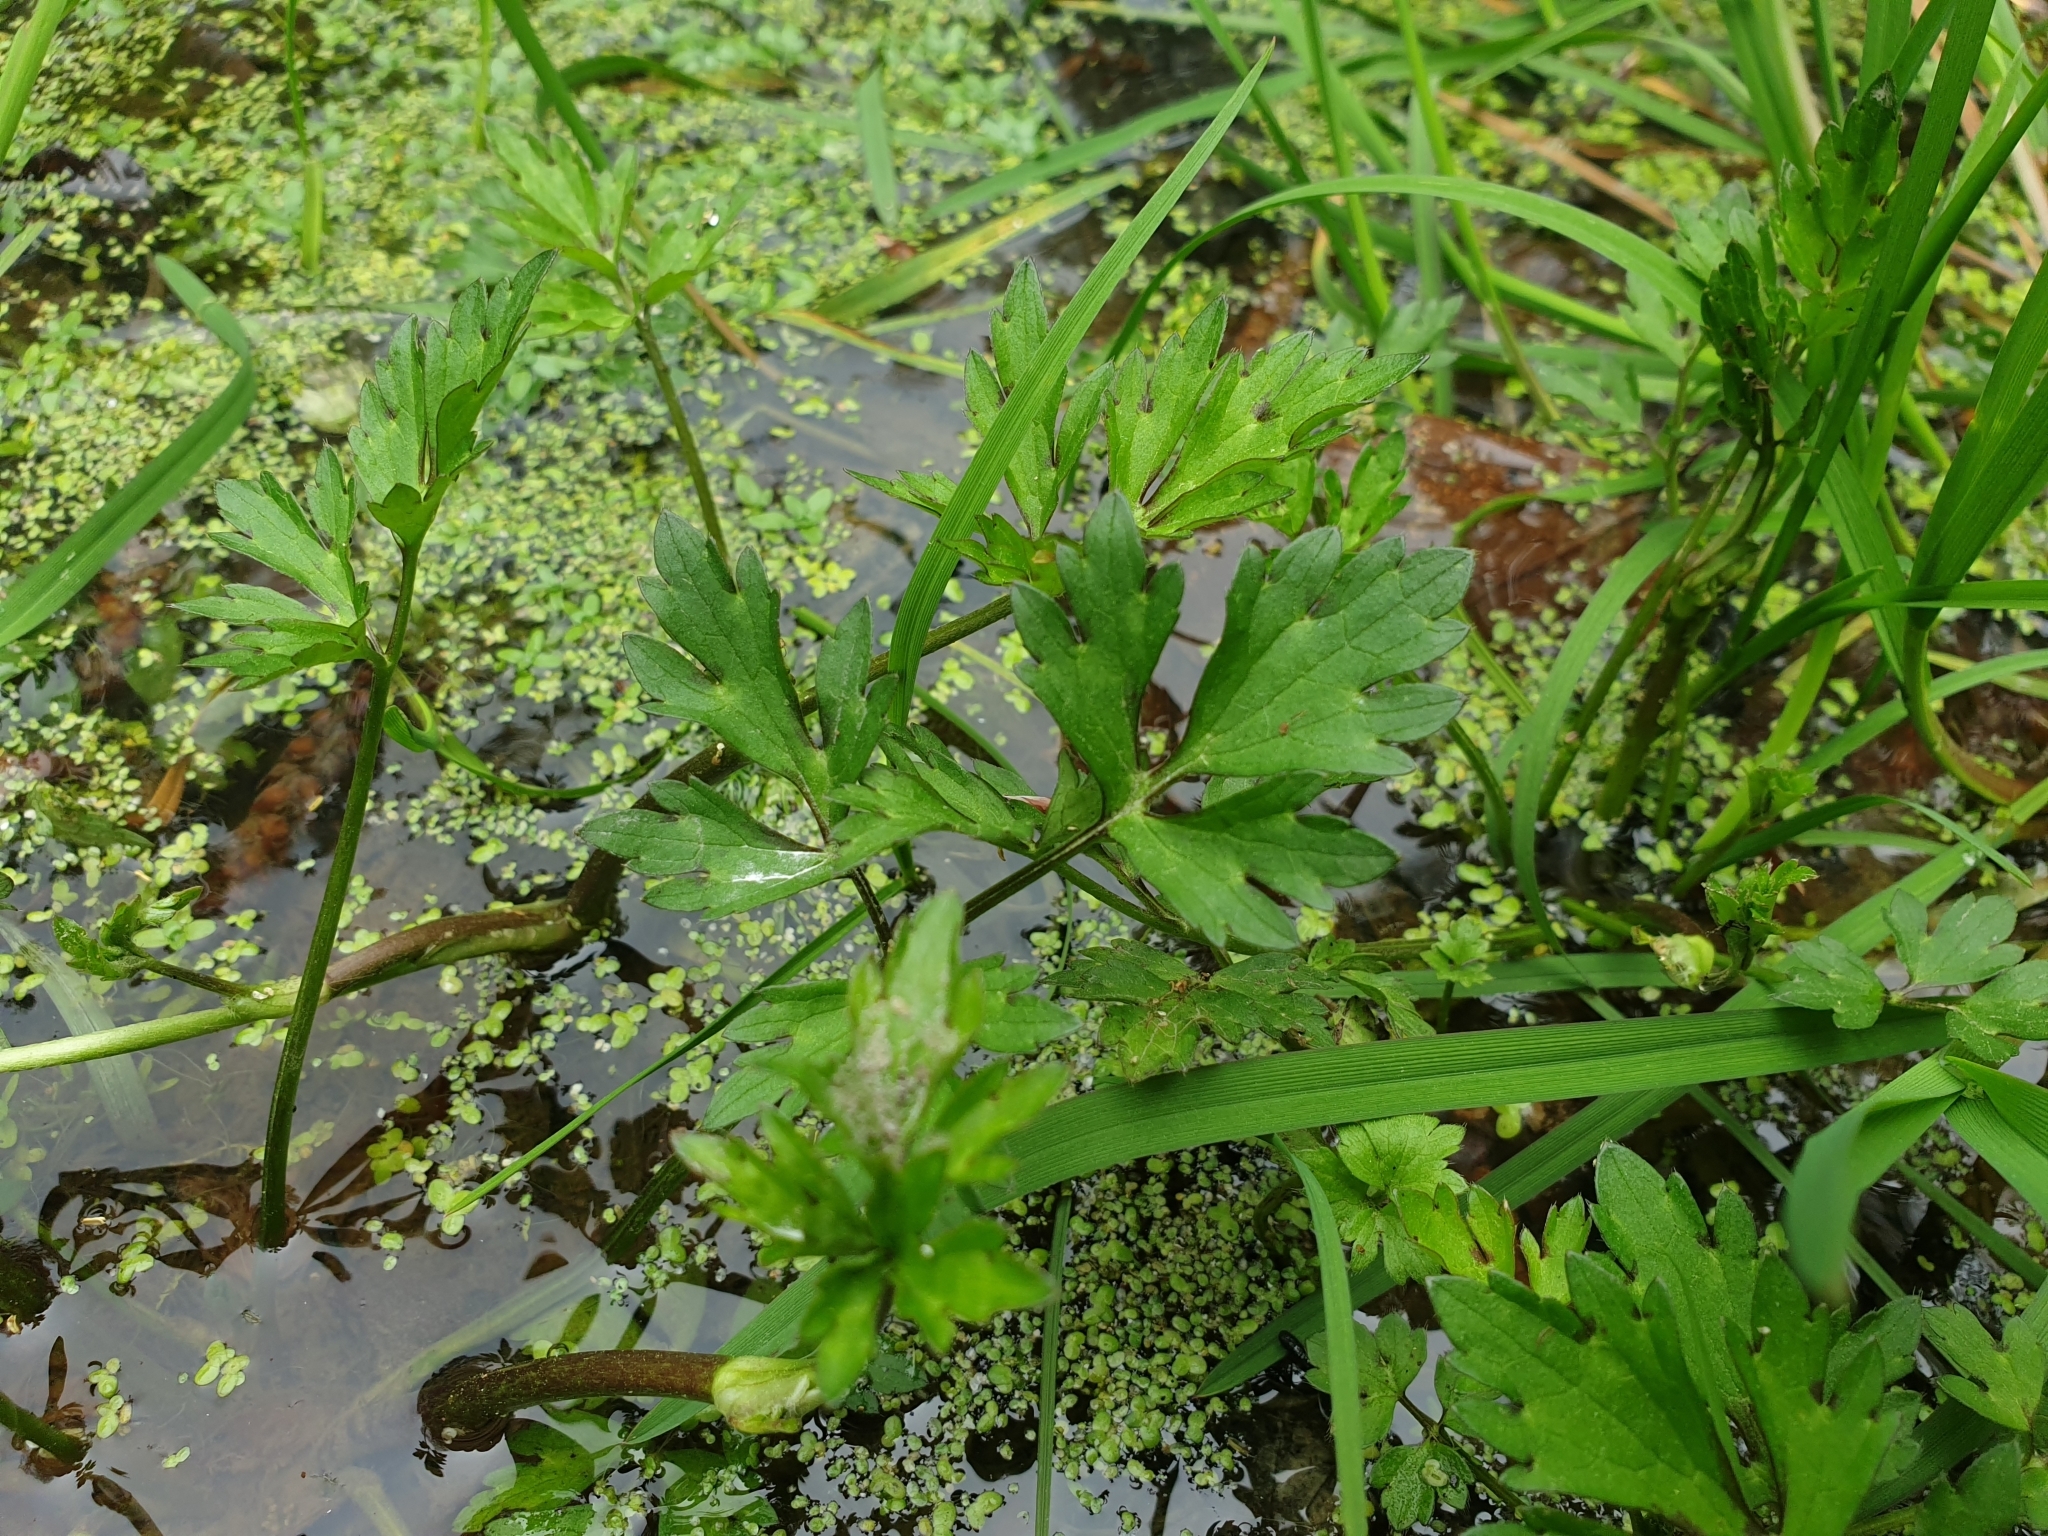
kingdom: Plantae
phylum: Tracheophyta
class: Magnoliopsida
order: Ranunculales
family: Ranunculaceae
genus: Ranunculus
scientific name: Ranunculus sceleratus
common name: Celery-leaved buttercup
